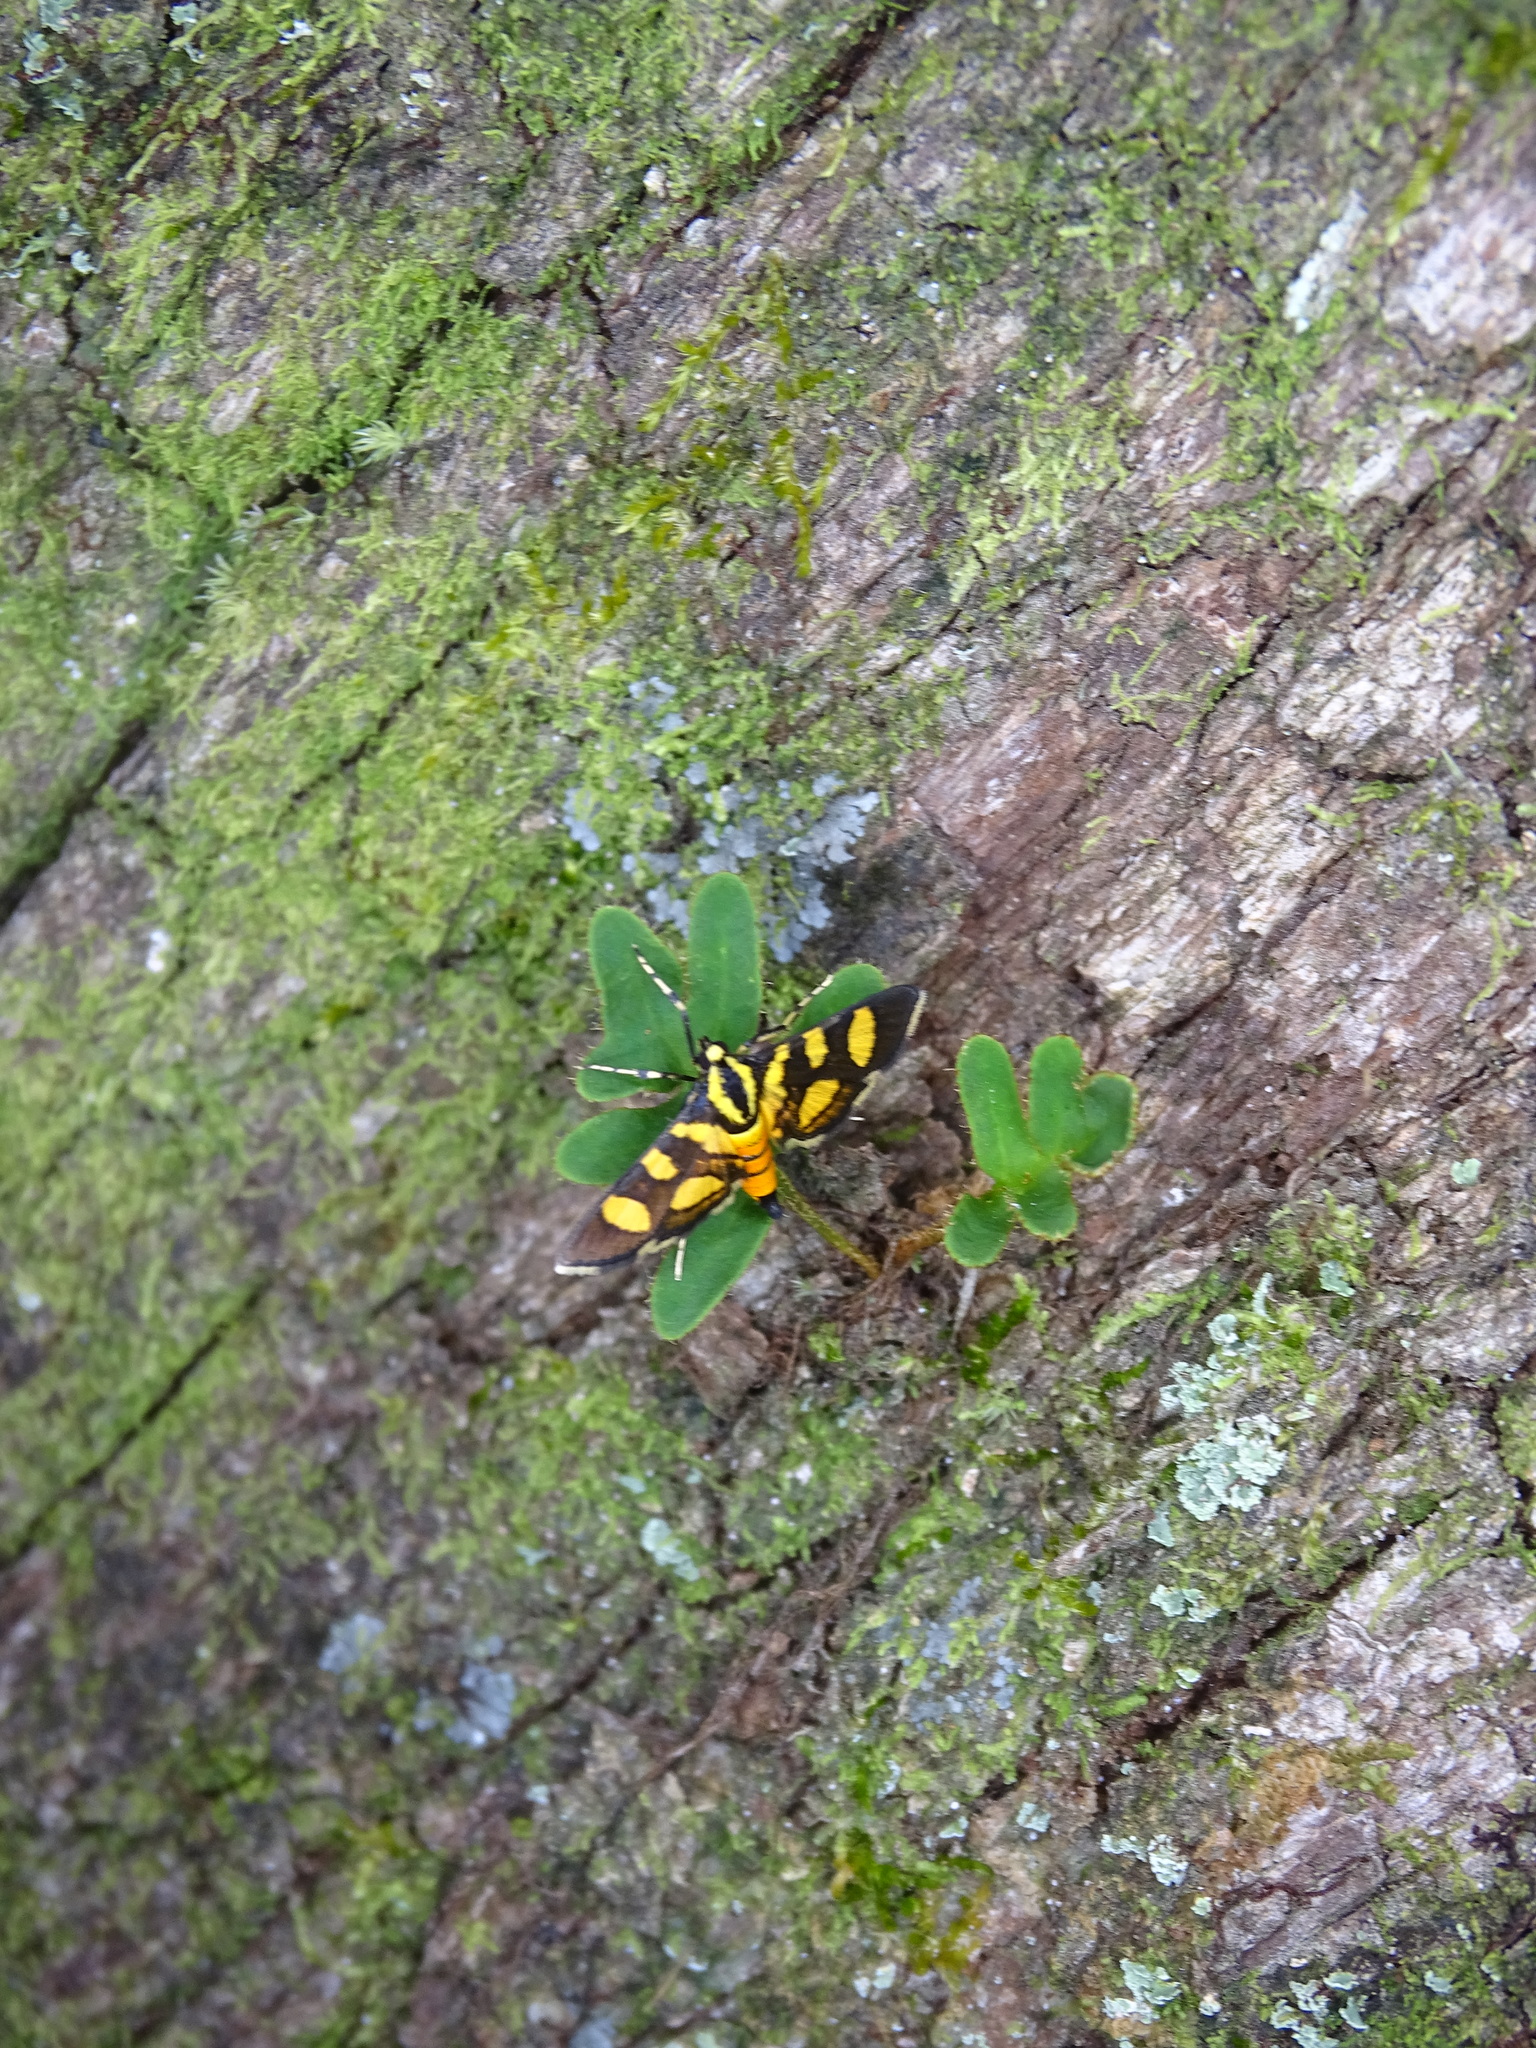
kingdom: Animalia
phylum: Arthropoda
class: Insecta
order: Lepidoptera
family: Crambidae
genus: Syngamia
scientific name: Syngamia florella
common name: Orange-spotted flower moth
